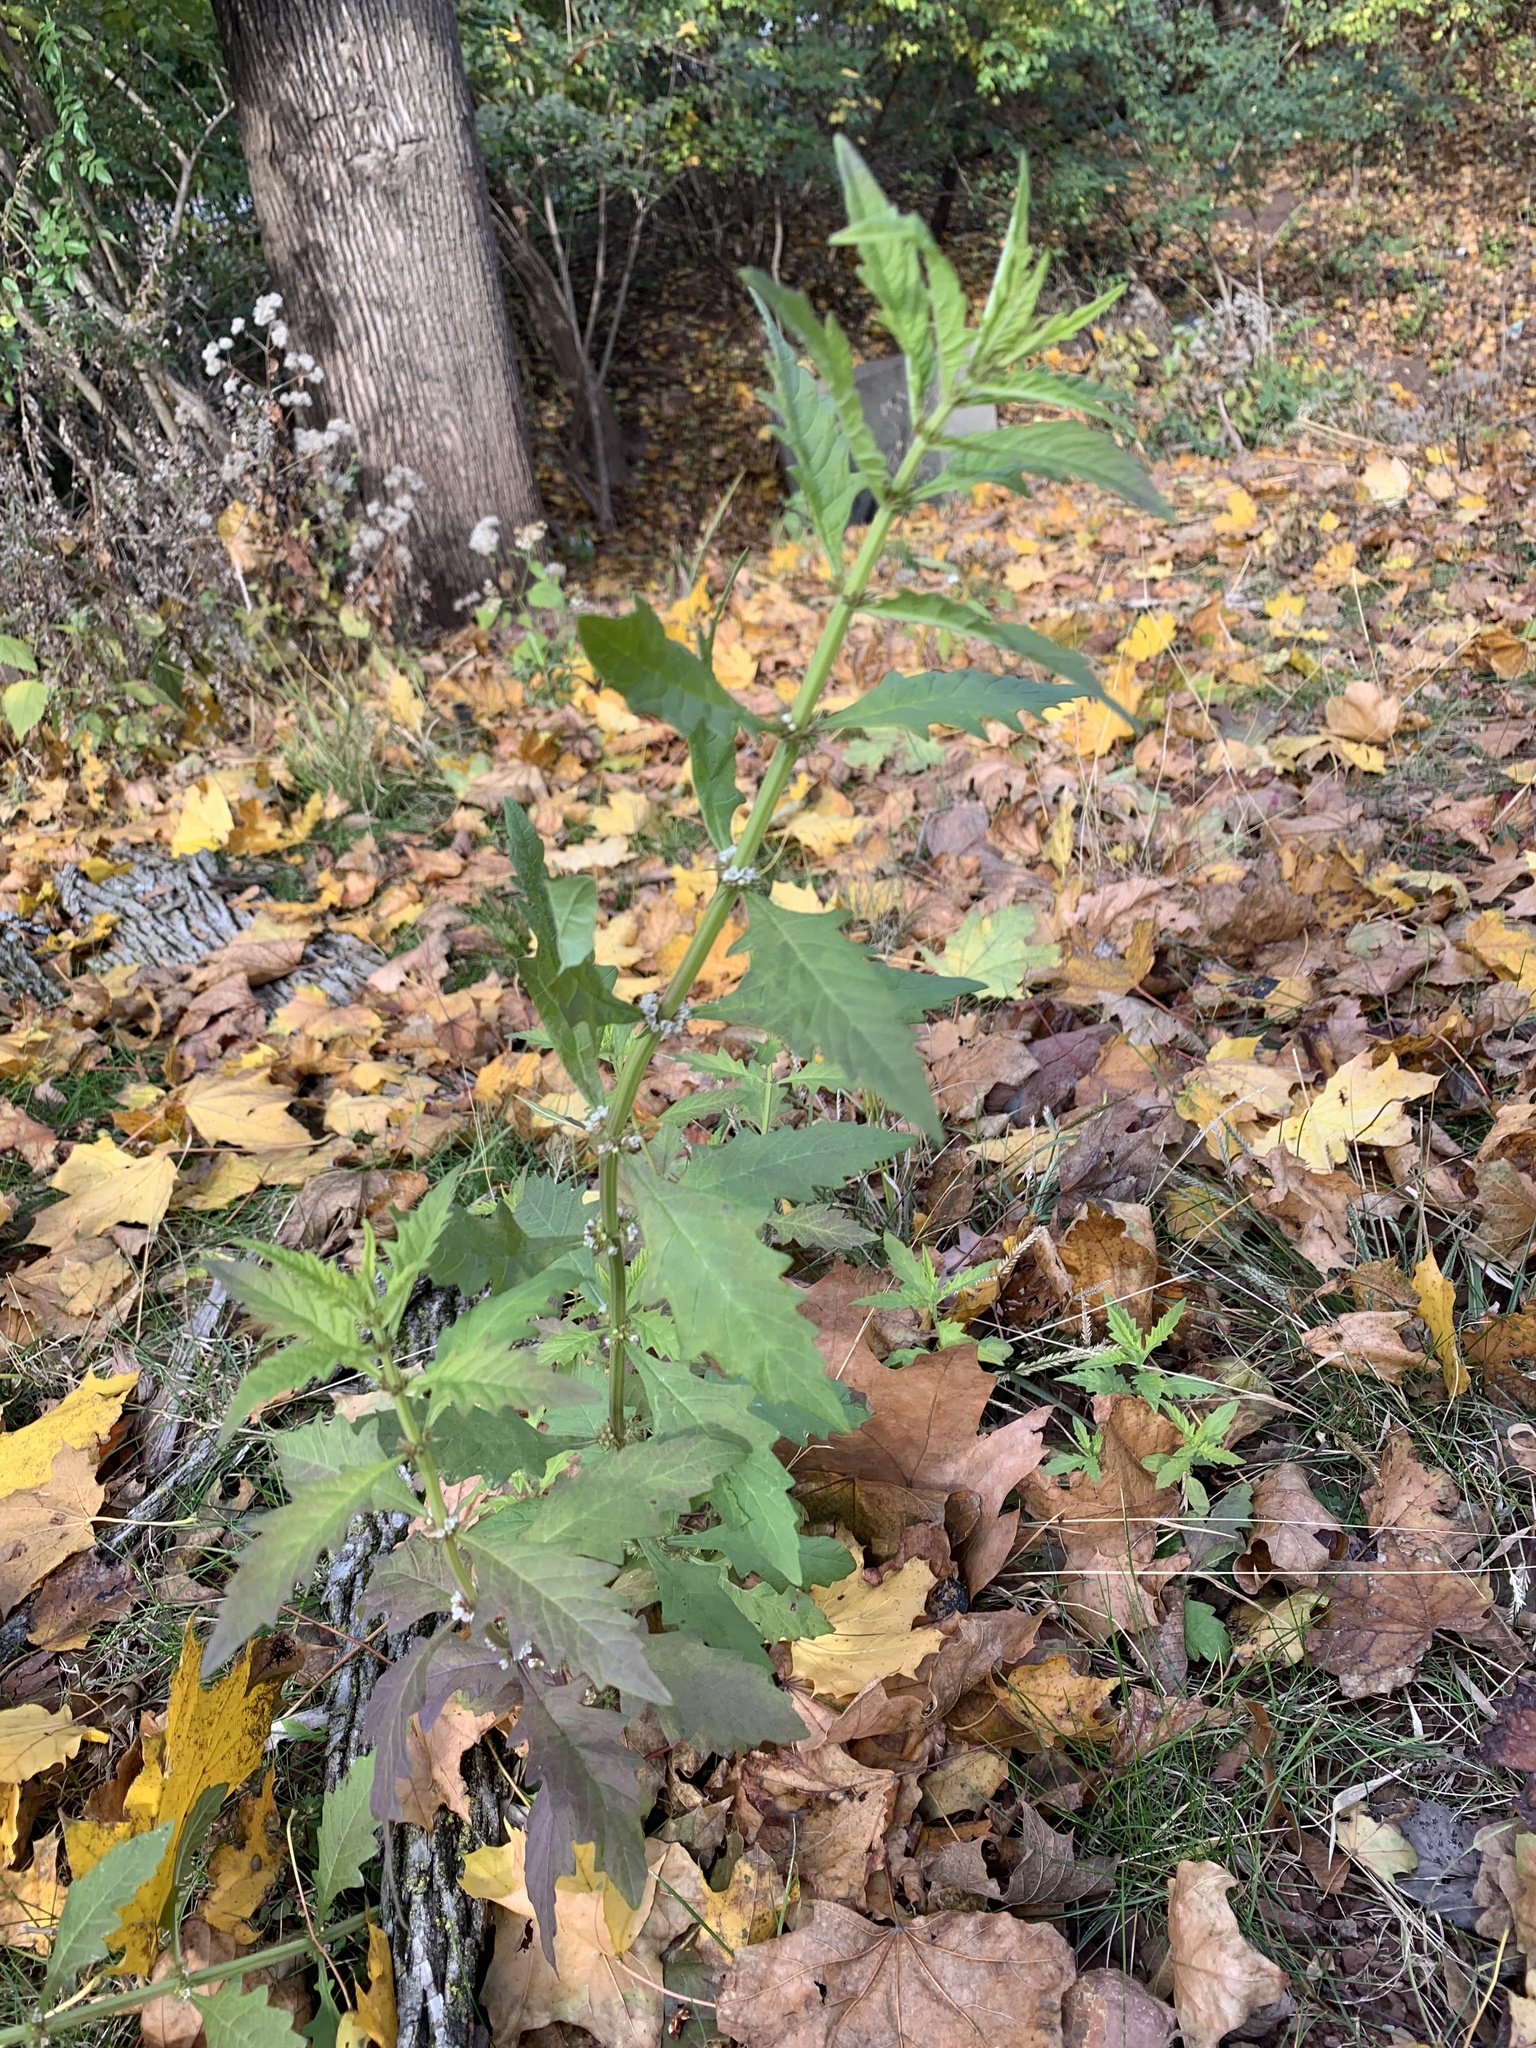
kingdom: Plantae
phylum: Tracheophyta
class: Magnoliopsida
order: Lamiales
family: Lamiaceae
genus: Lycopus
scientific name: Lycopus europaeus
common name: European bugleweed
